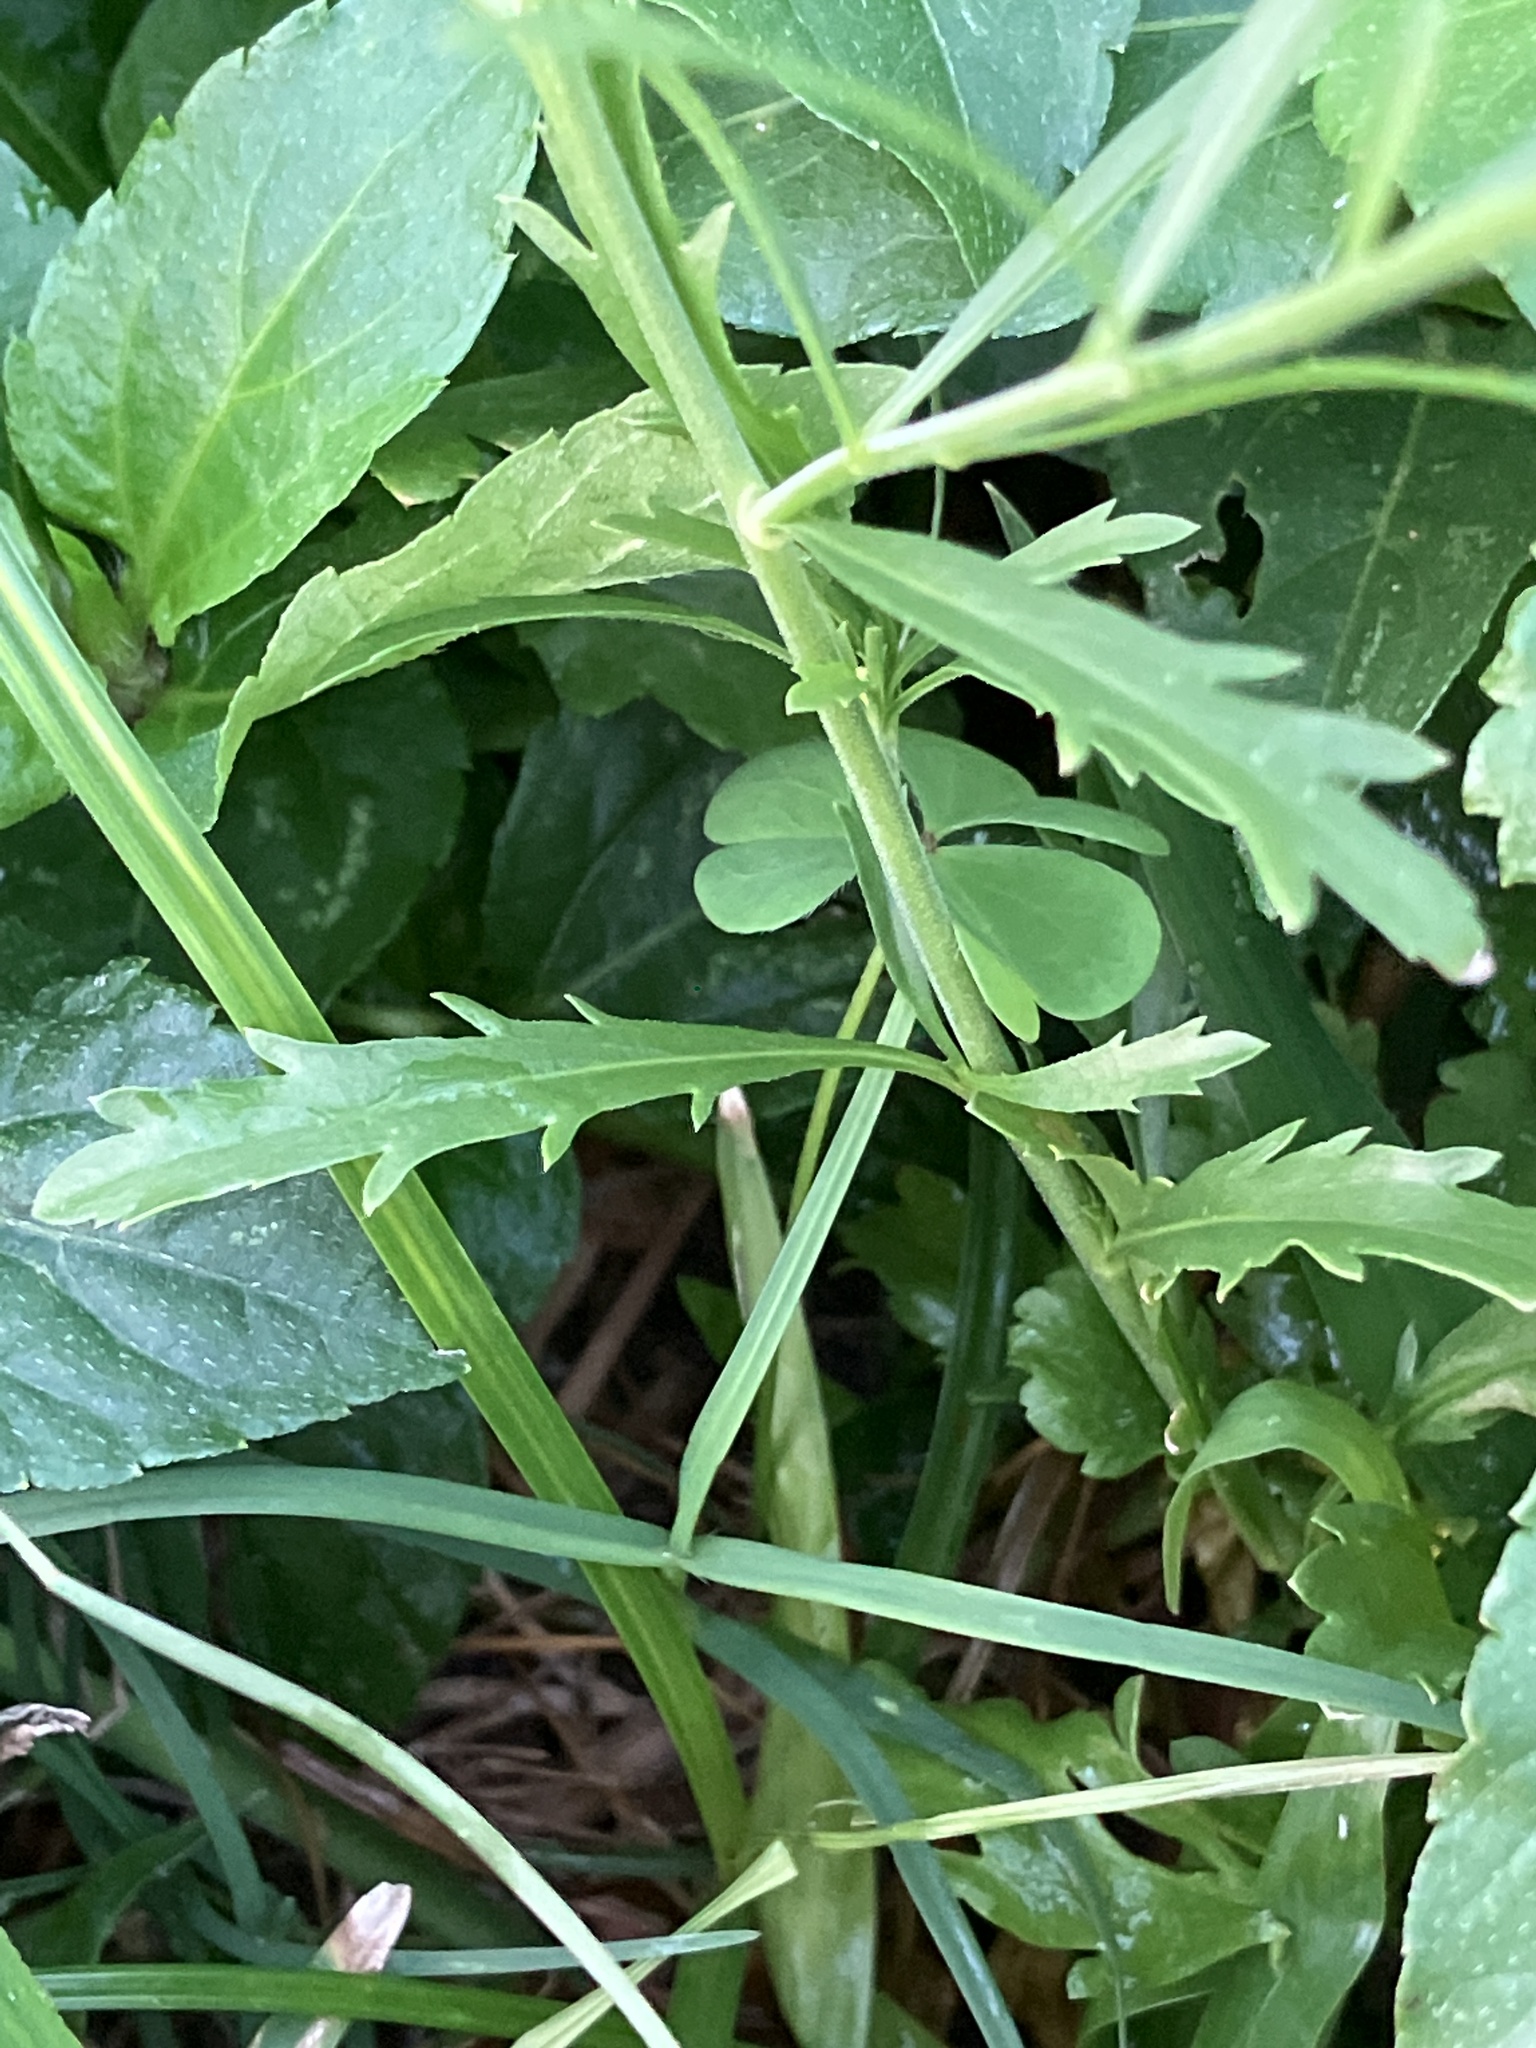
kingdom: Plantae
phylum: Tracheophyta
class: Magnoliopsida
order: Brassicales
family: Brassicaceae
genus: Lepidium
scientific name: Lepidium virginicum
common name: Least pepperwort
